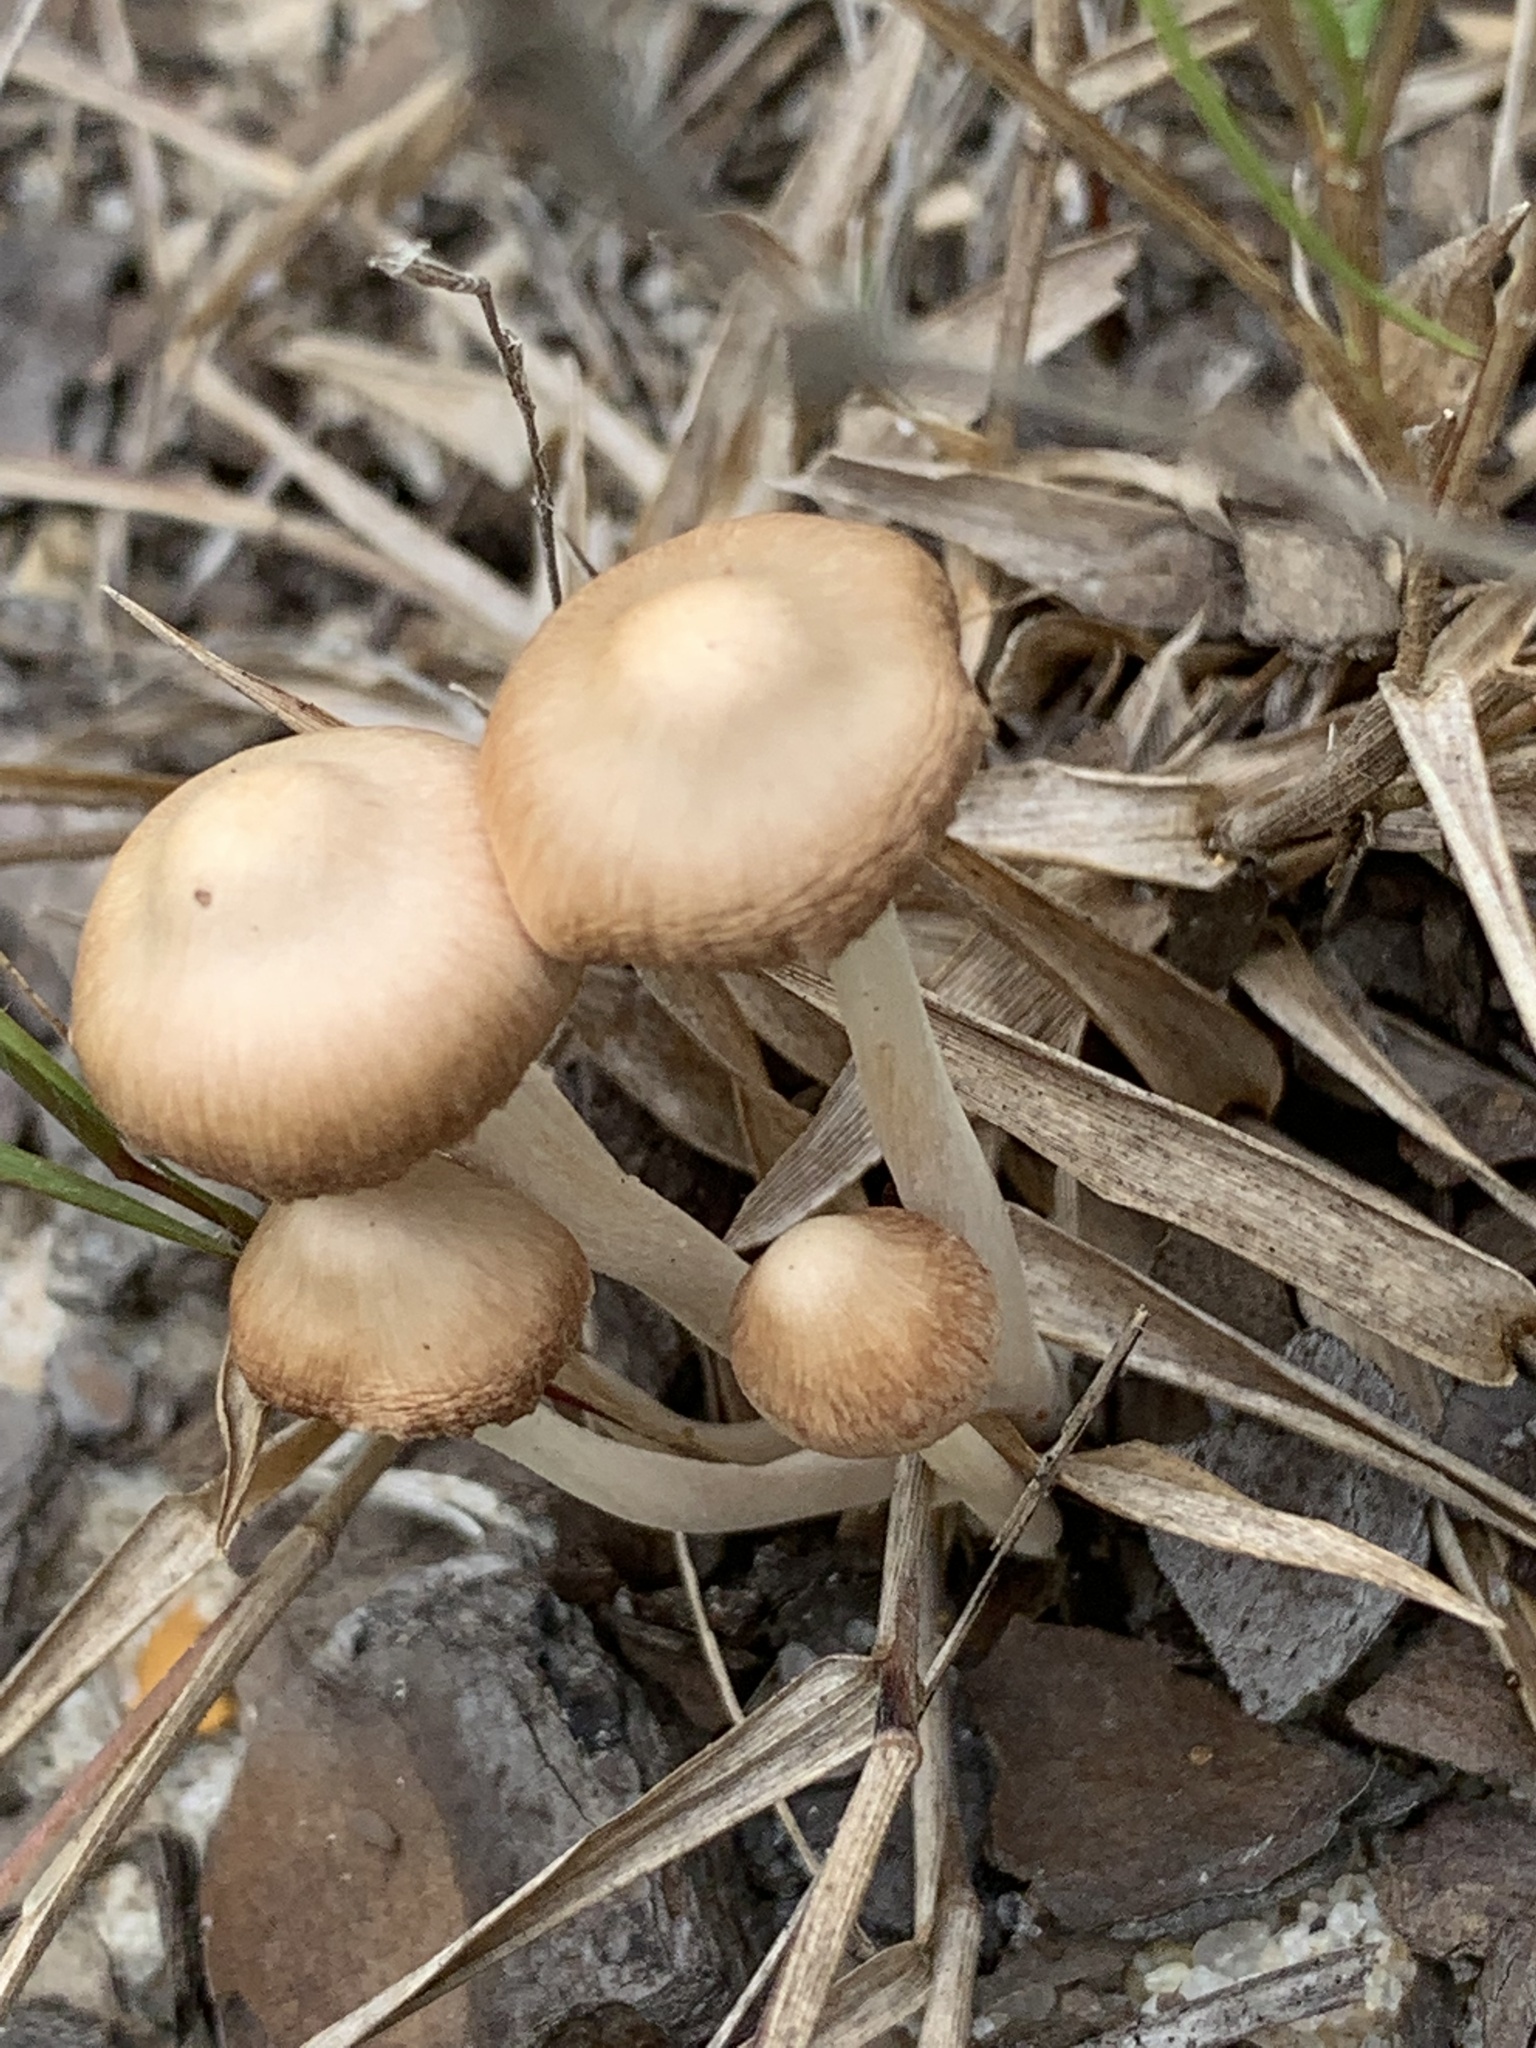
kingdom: Fungi
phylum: Basidiomycota
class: Agaricomycetes
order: Agaricales
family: Marasmiaceae
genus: Marasmius
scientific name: Marasmius oreades
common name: Fairy ring champignon
